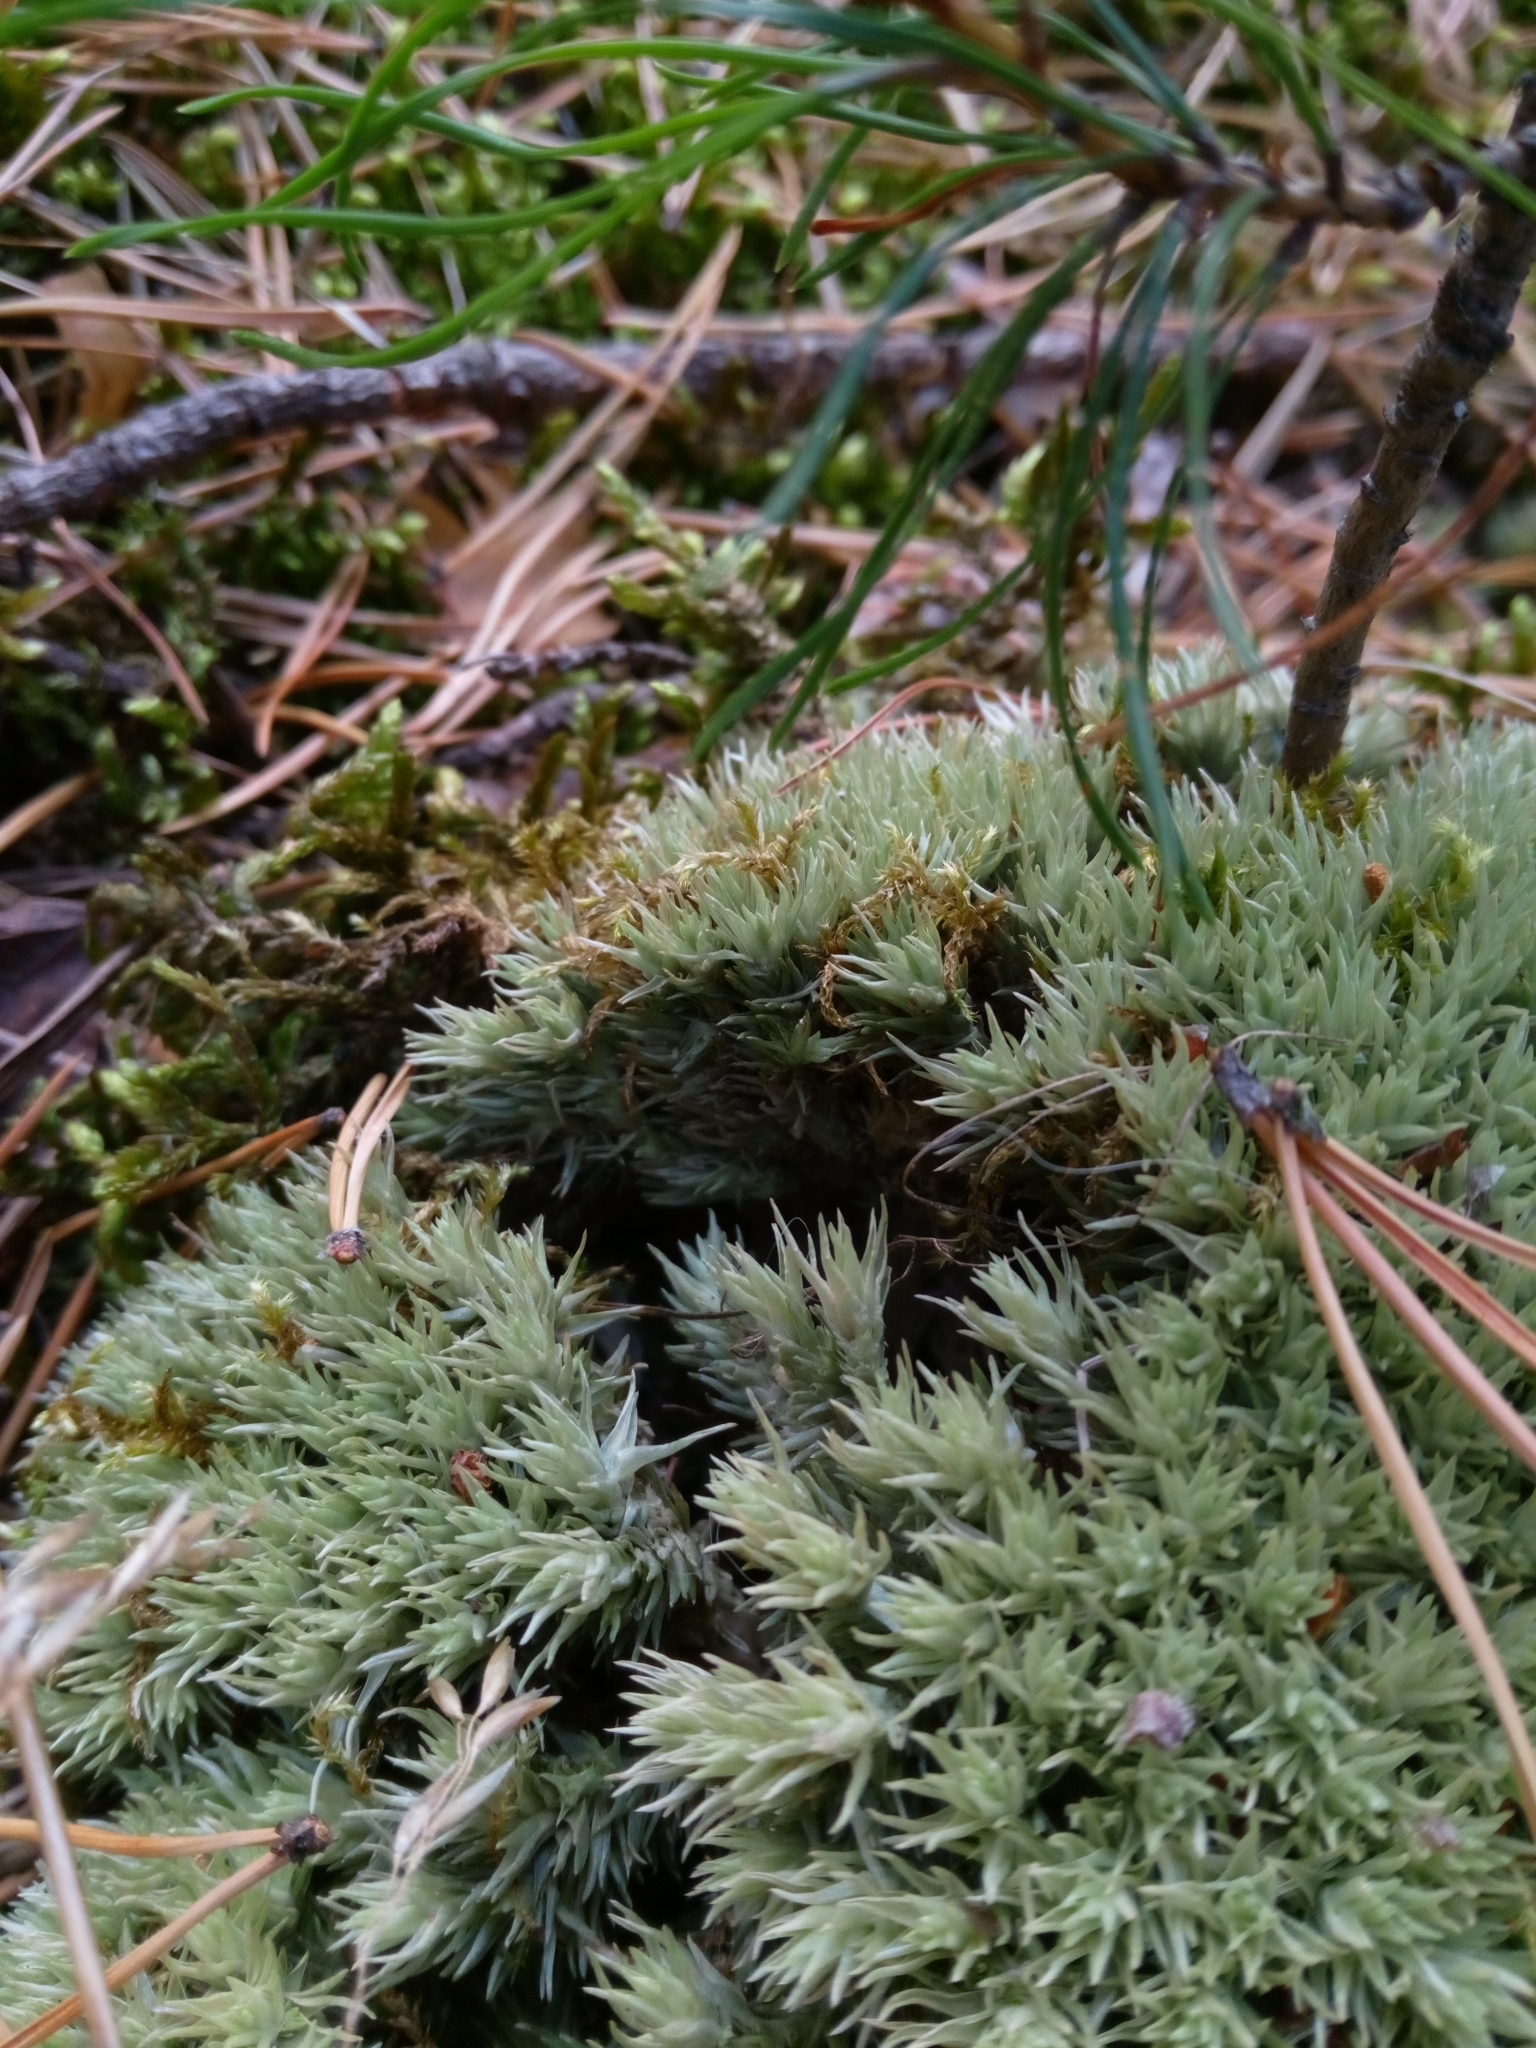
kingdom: Plantae
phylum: Bryophyta
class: Bryopsida
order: Dicranales
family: Leucobryaceae
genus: Leucobryum
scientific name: Leucobryum glaucum
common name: Large white-moss
